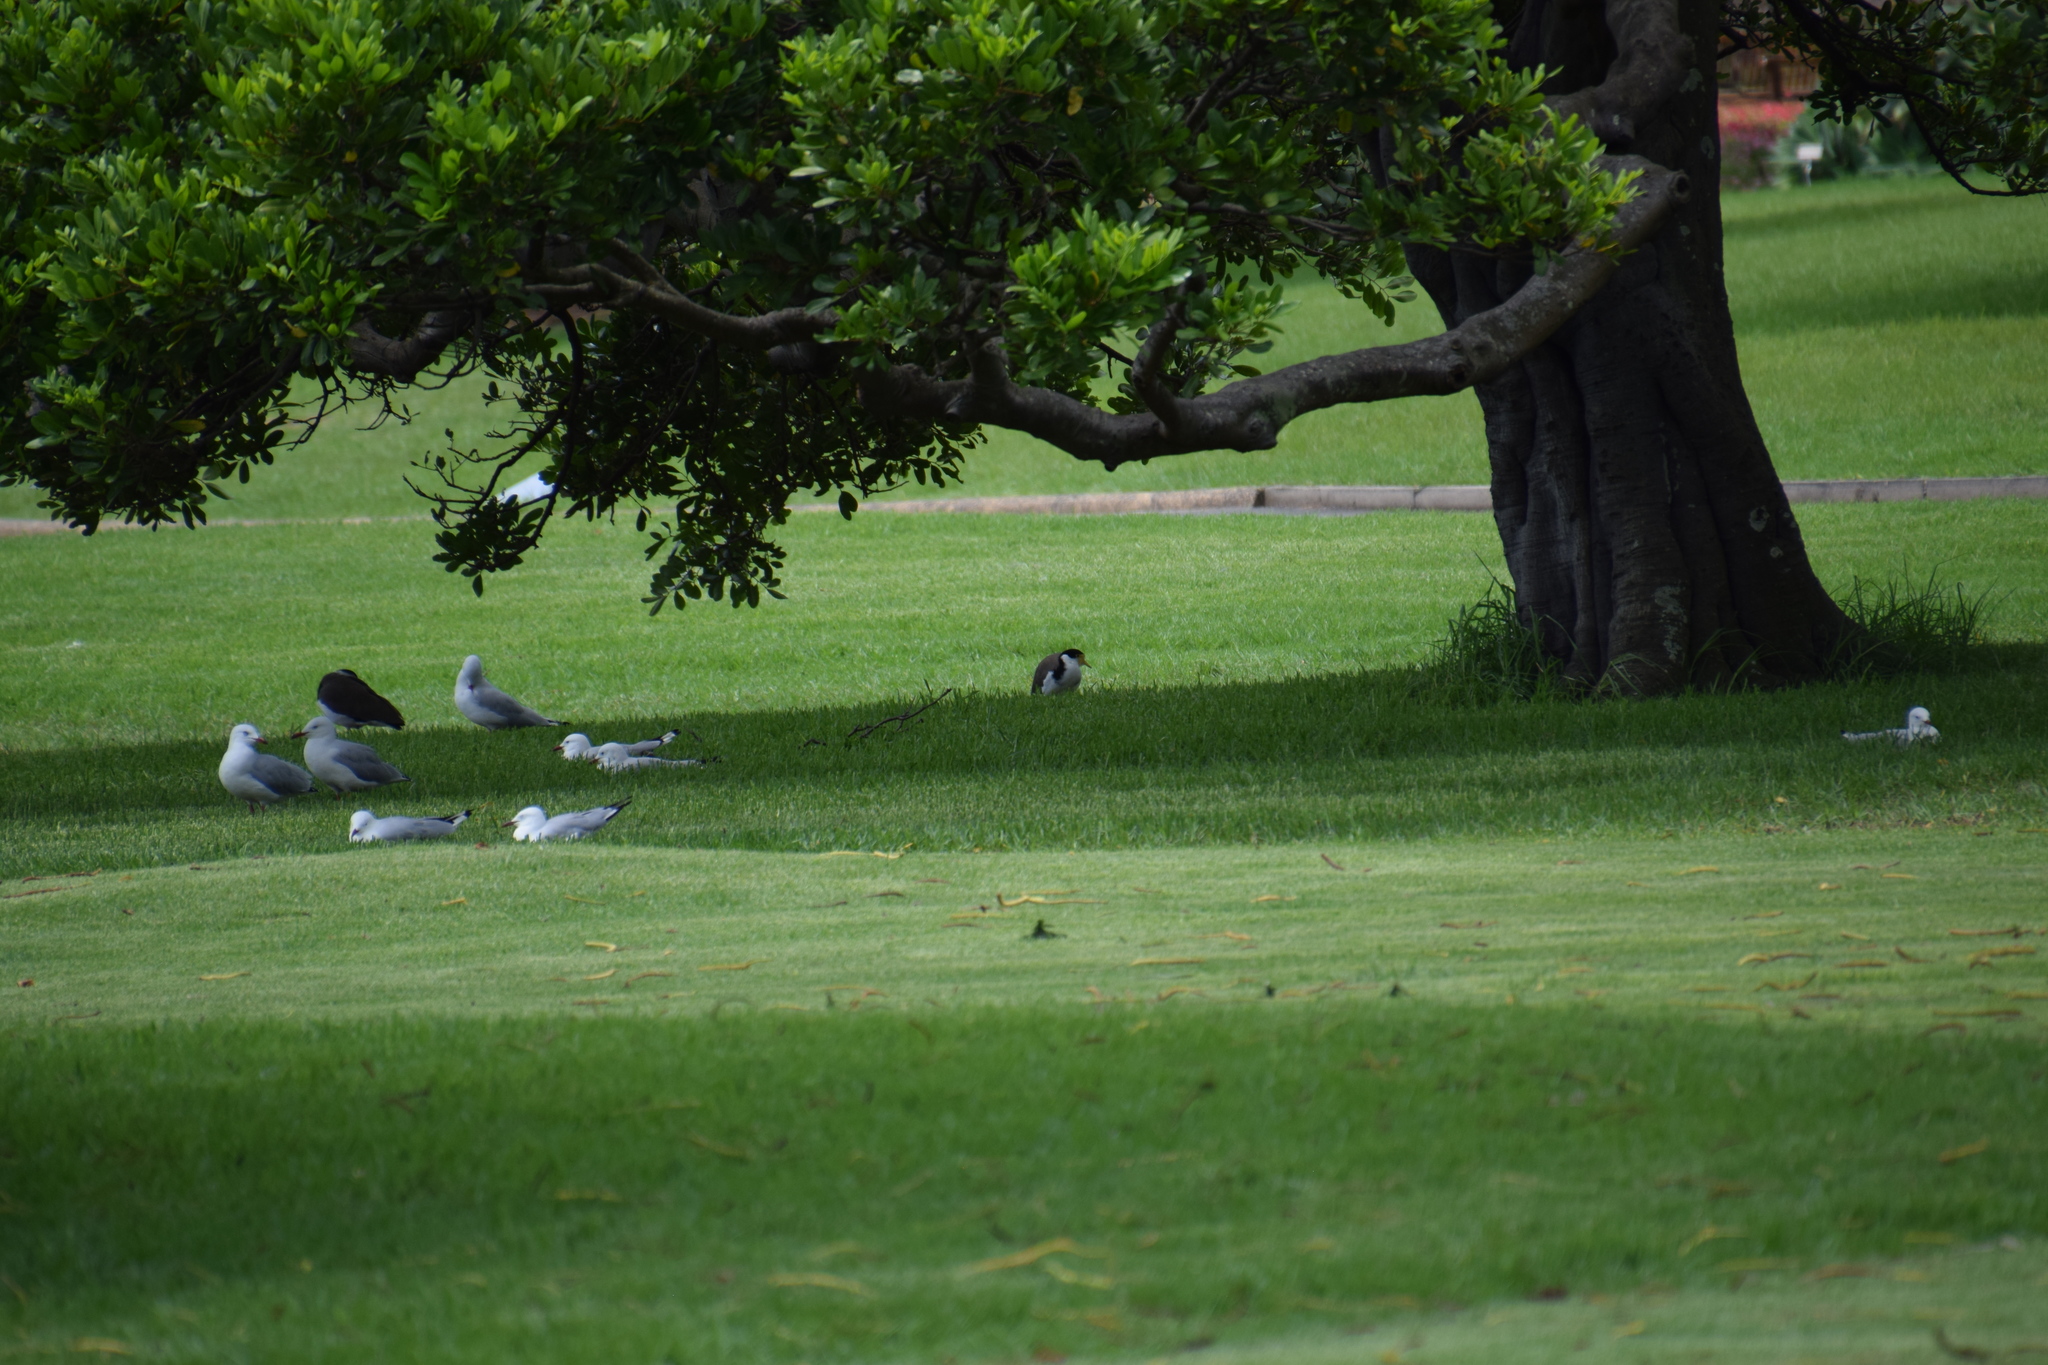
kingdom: Animalia
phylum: Chordata
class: Aves
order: Charadriiformes
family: Charadriidae
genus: Vanellus
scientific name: Vanellus miles
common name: Masked lapwing
